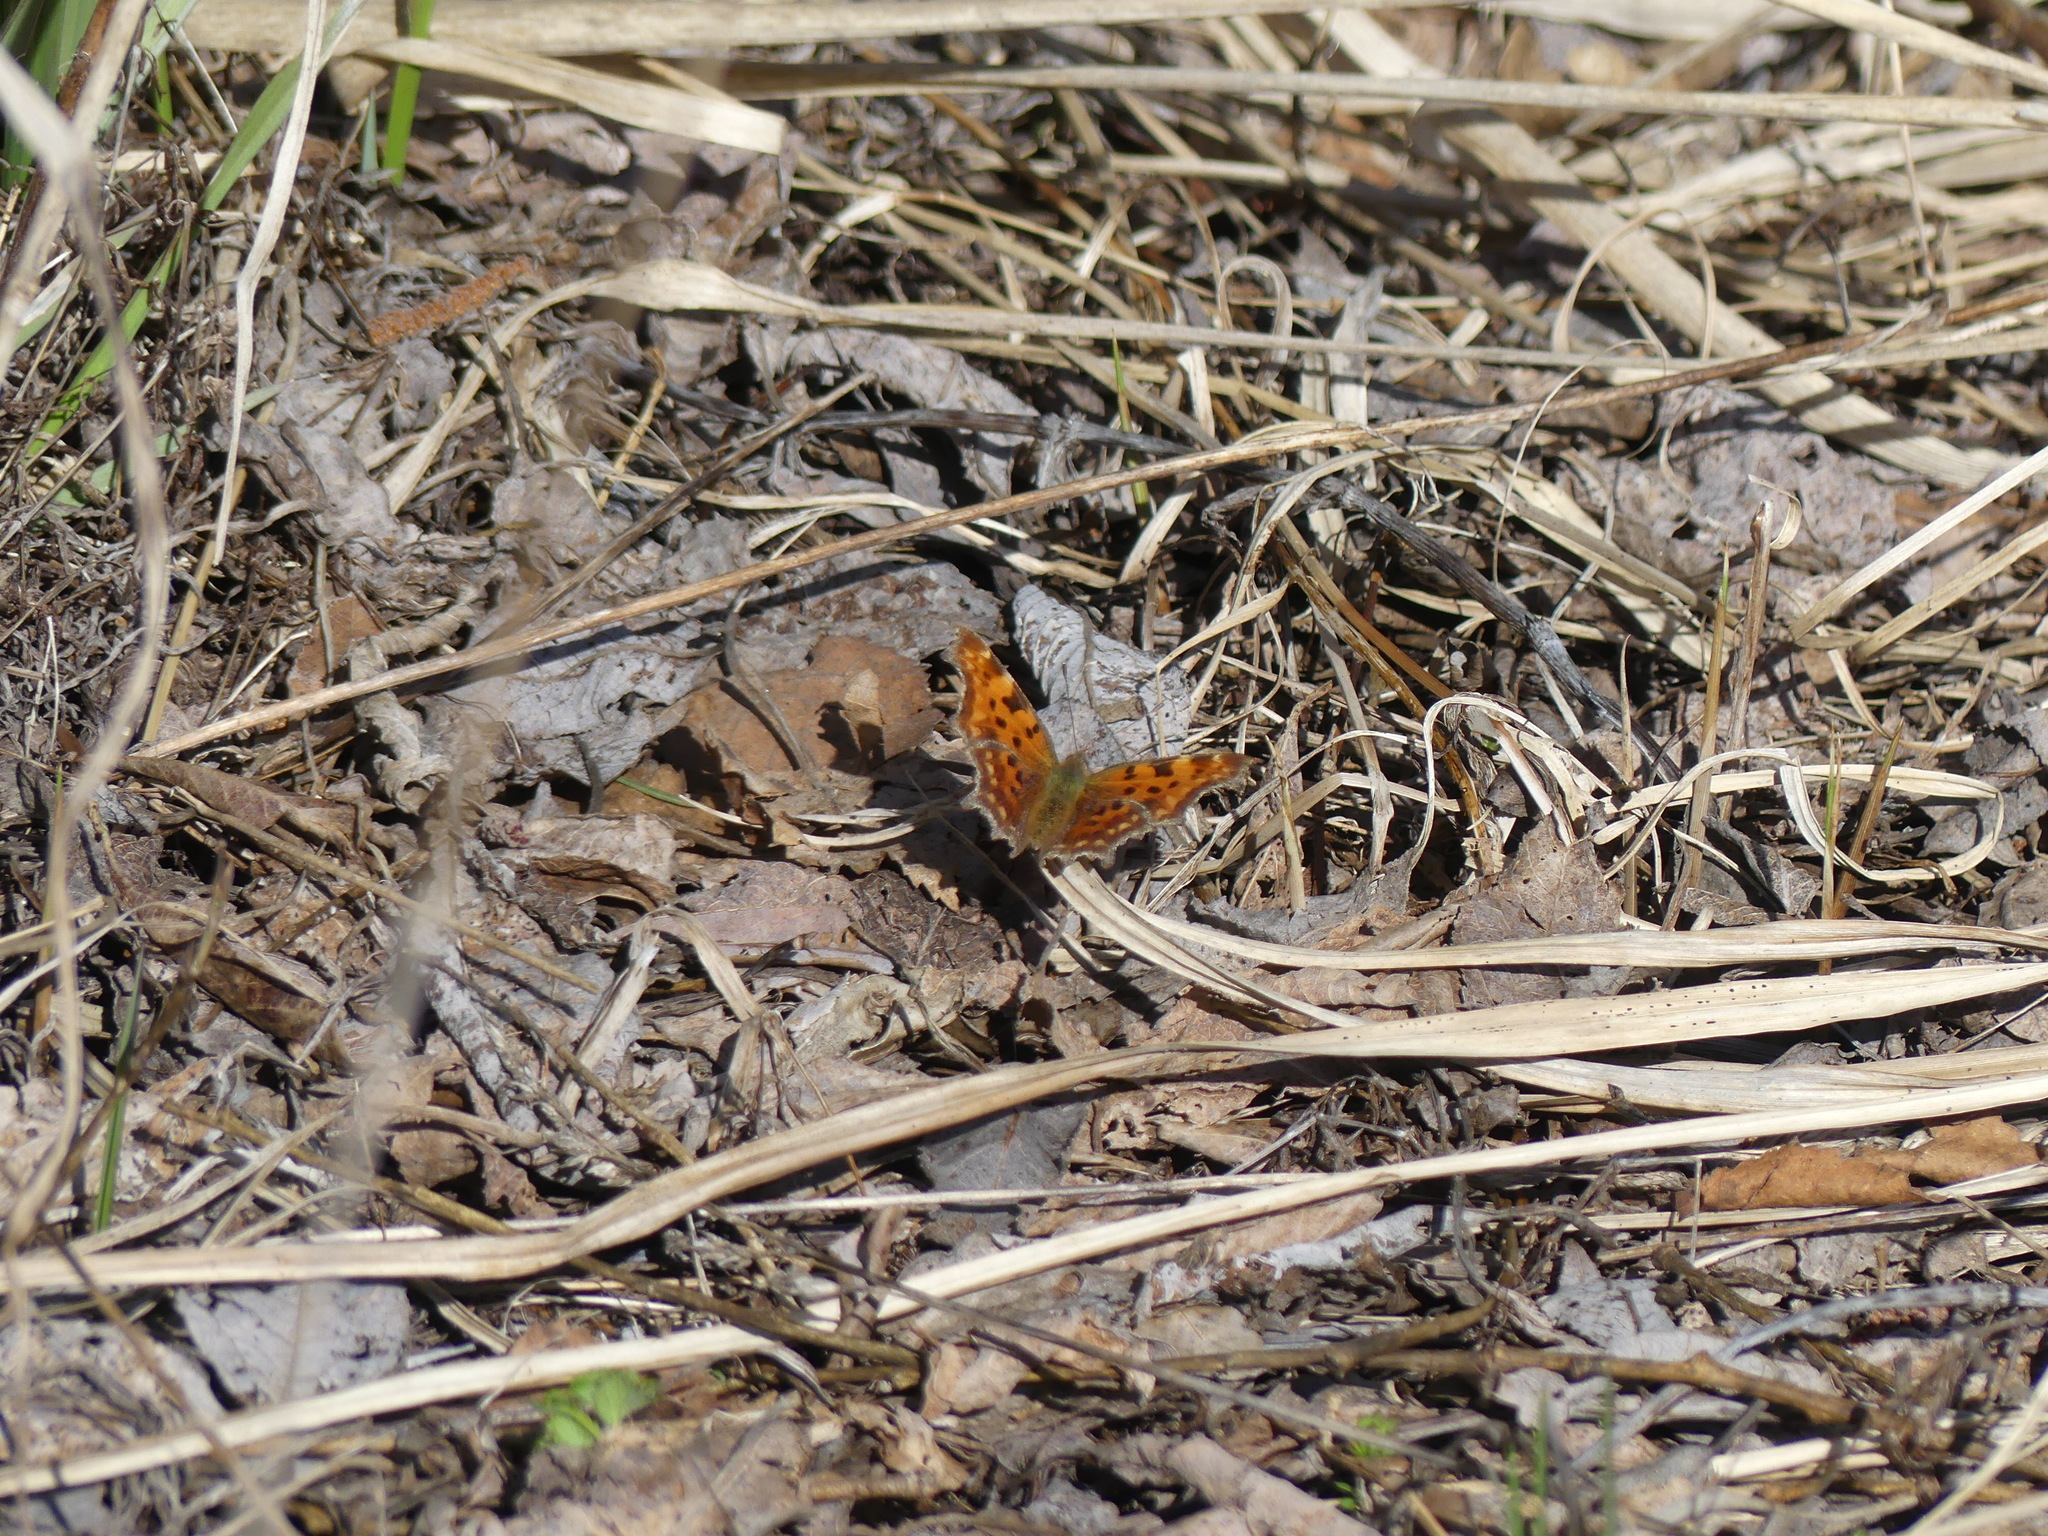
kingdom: Animalia
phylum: Arthropoda
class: Insecta
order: Lepidoptera
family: Nymphalidae
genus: Polygonia
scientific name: Polygonia c-album
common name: Comma
